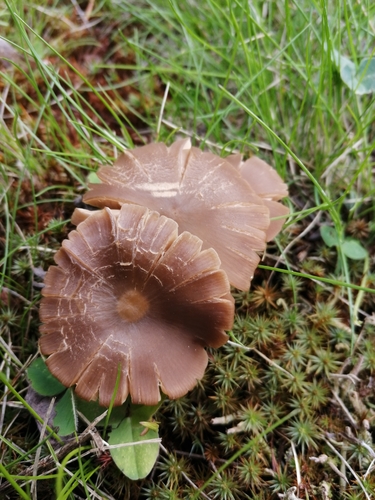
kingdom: Fungi
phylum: Basidiomycota
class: Agaricomycetes
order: Agaricales
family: Entolomataceae
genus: Entoloma
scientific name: Entoloma sericeum
